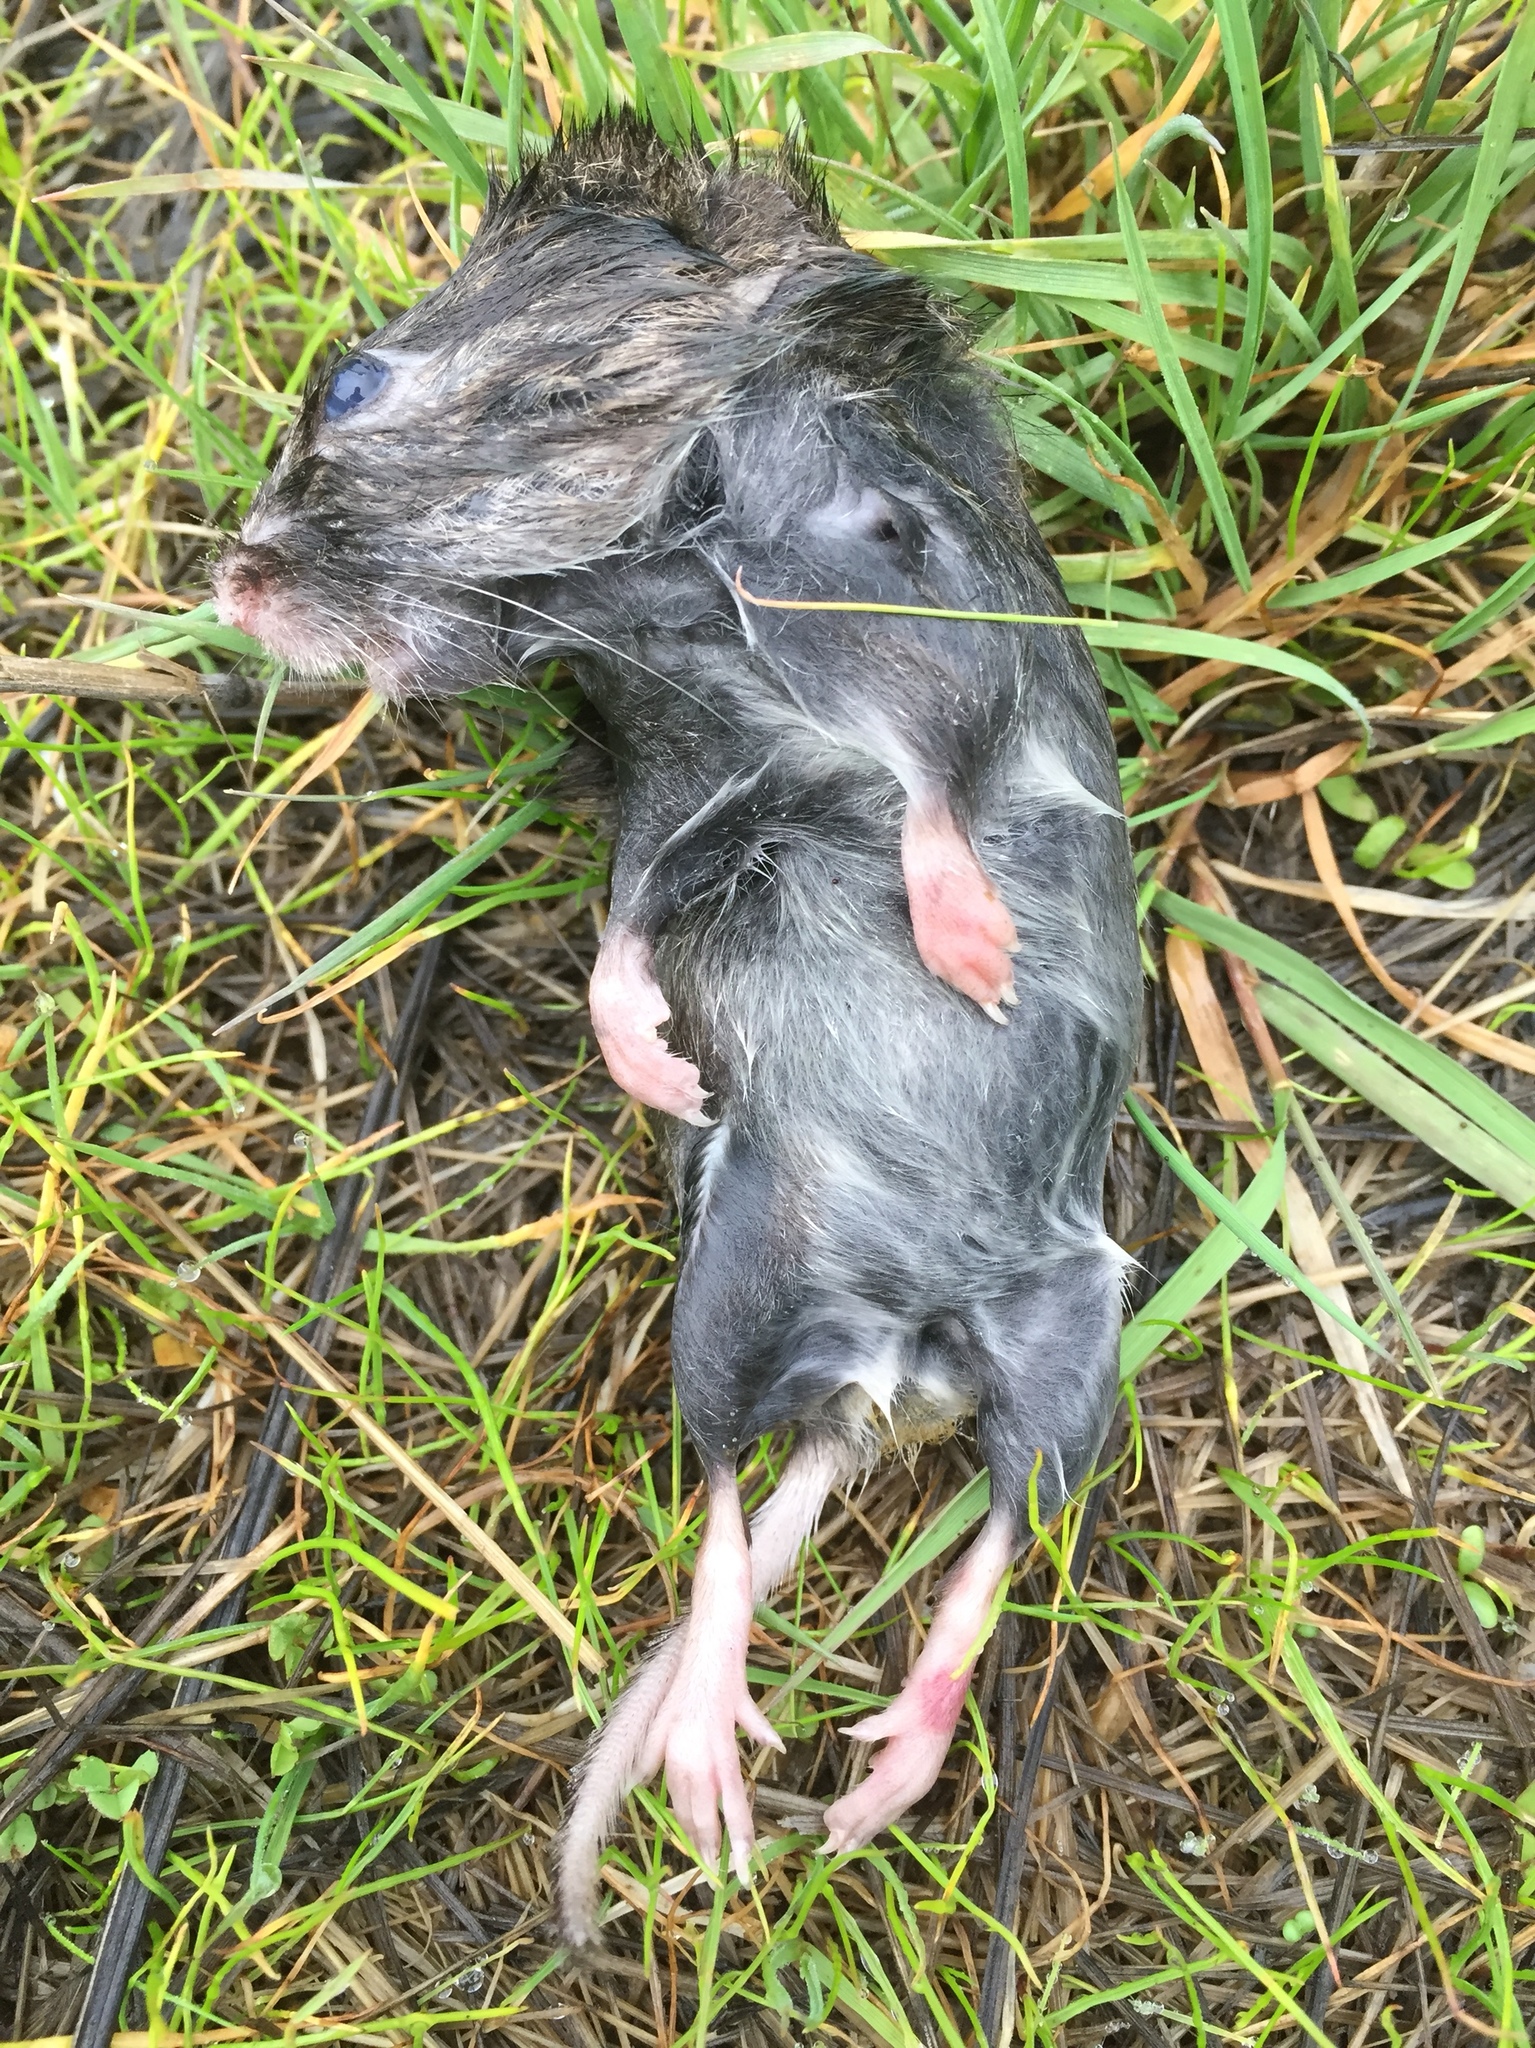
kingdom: Animalia
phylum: Chordata
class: Mammalia
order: Rodentia
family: Cricetidae
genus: Microtus
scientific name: Microtus californicus
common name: California vole
